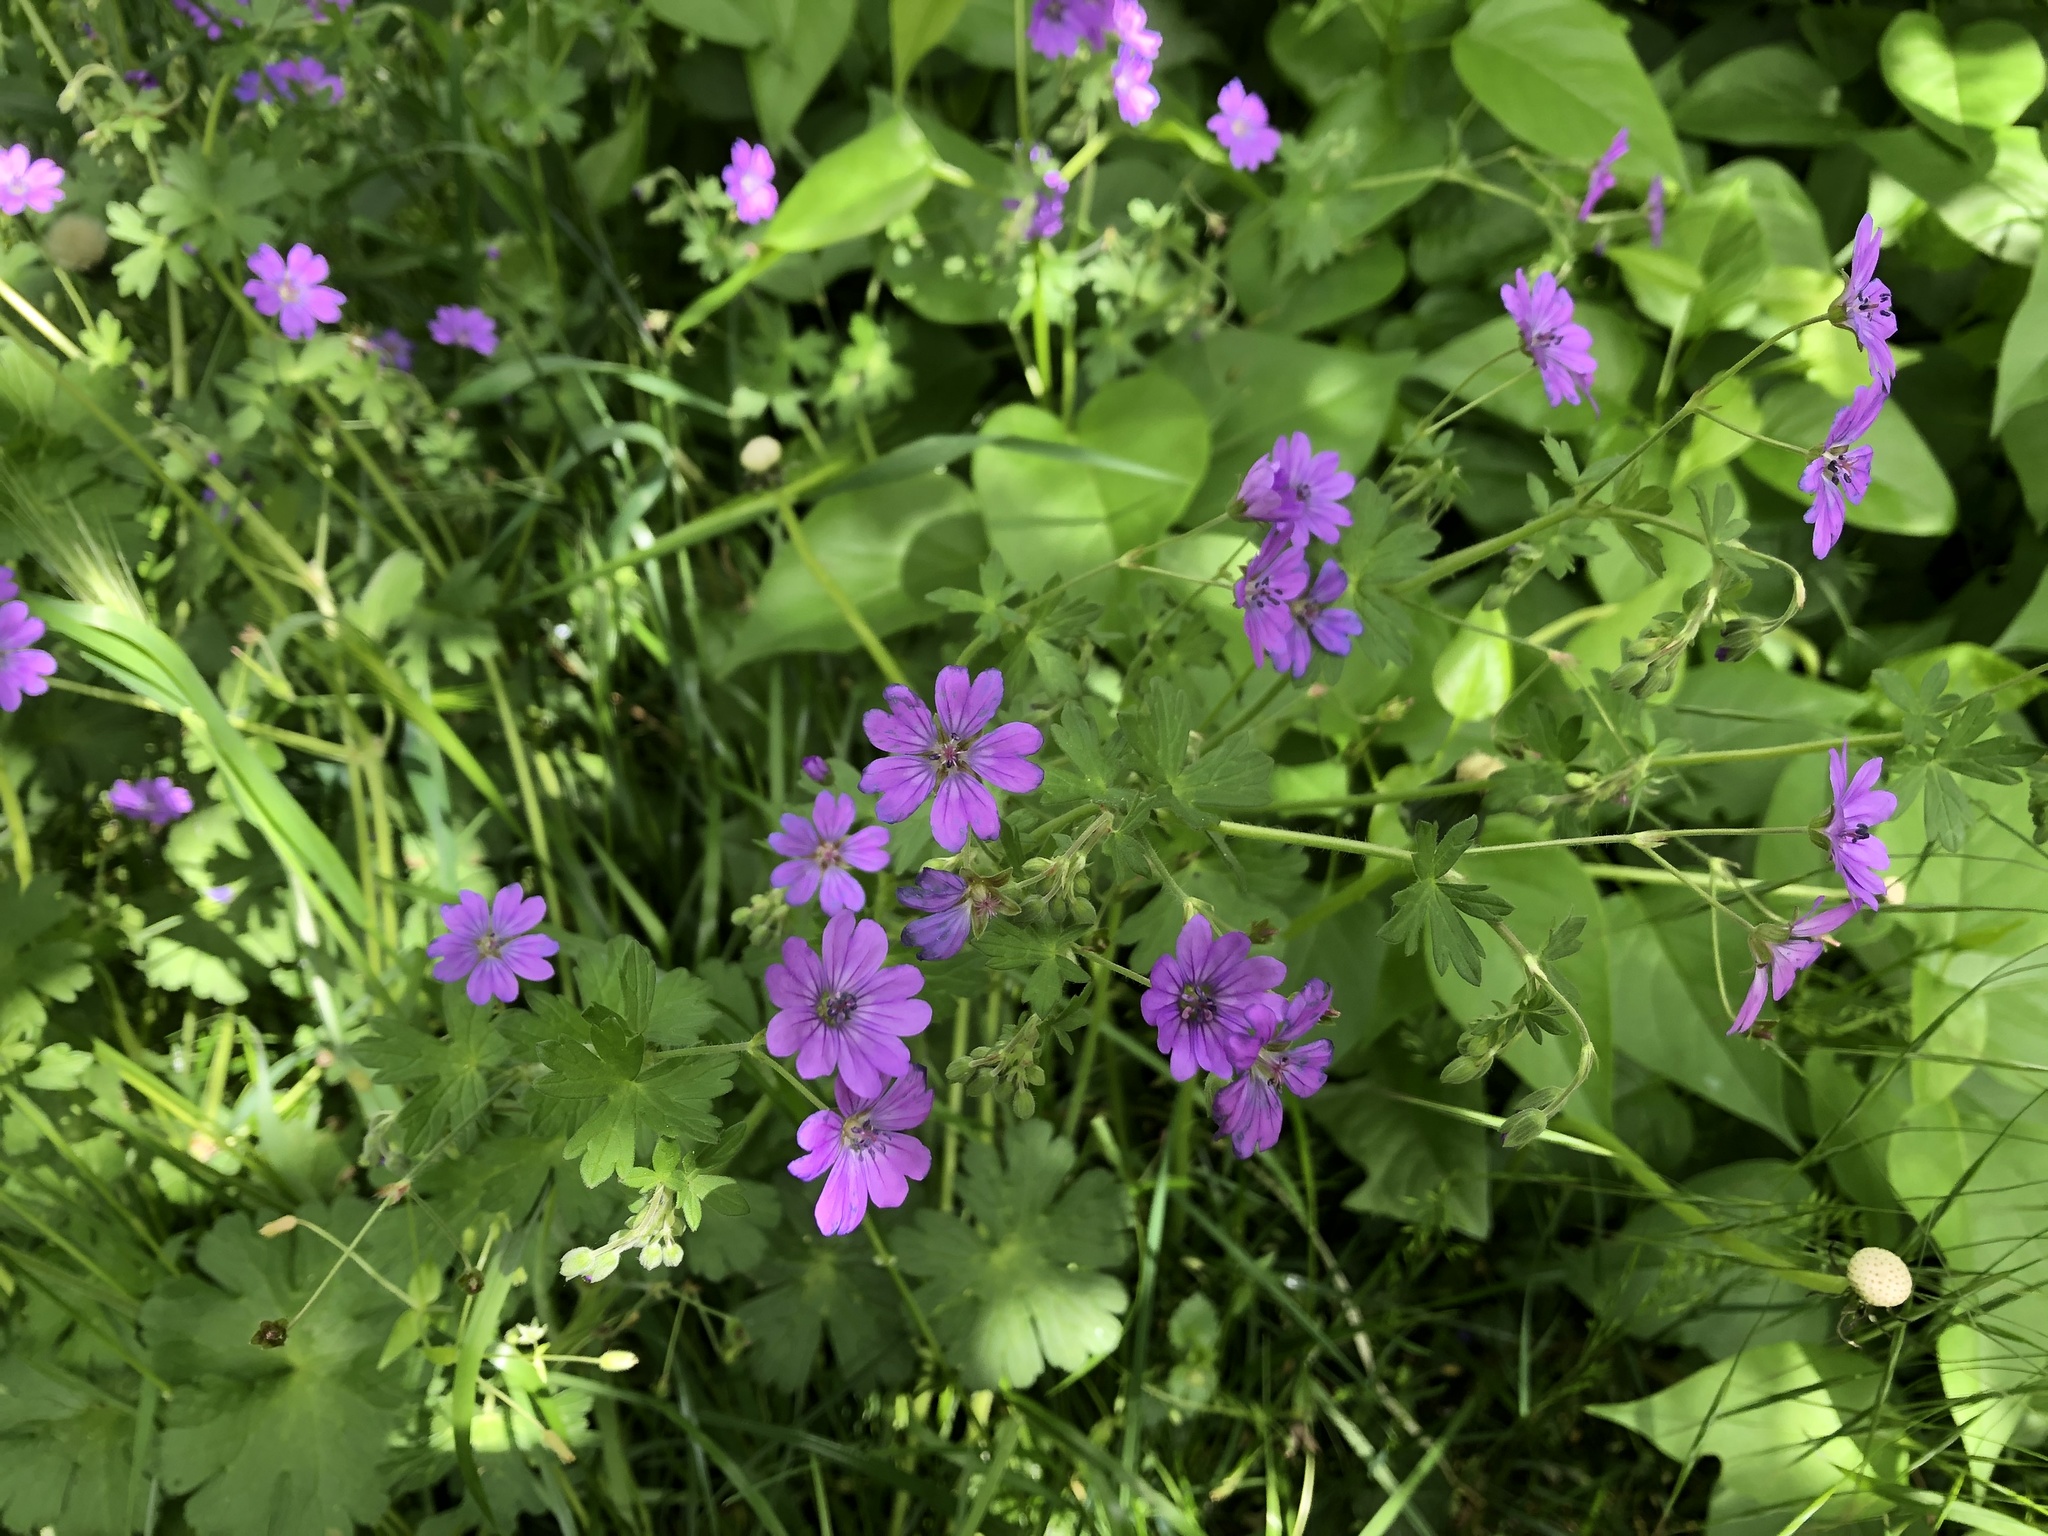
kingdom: Plantae
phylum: Tracheophyta
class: Magnoliopsida
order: Geraniales
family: Geraniaceae
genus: Geranium
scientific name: Geranium pyrenaicum
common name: Hedgerow crane's-bill
